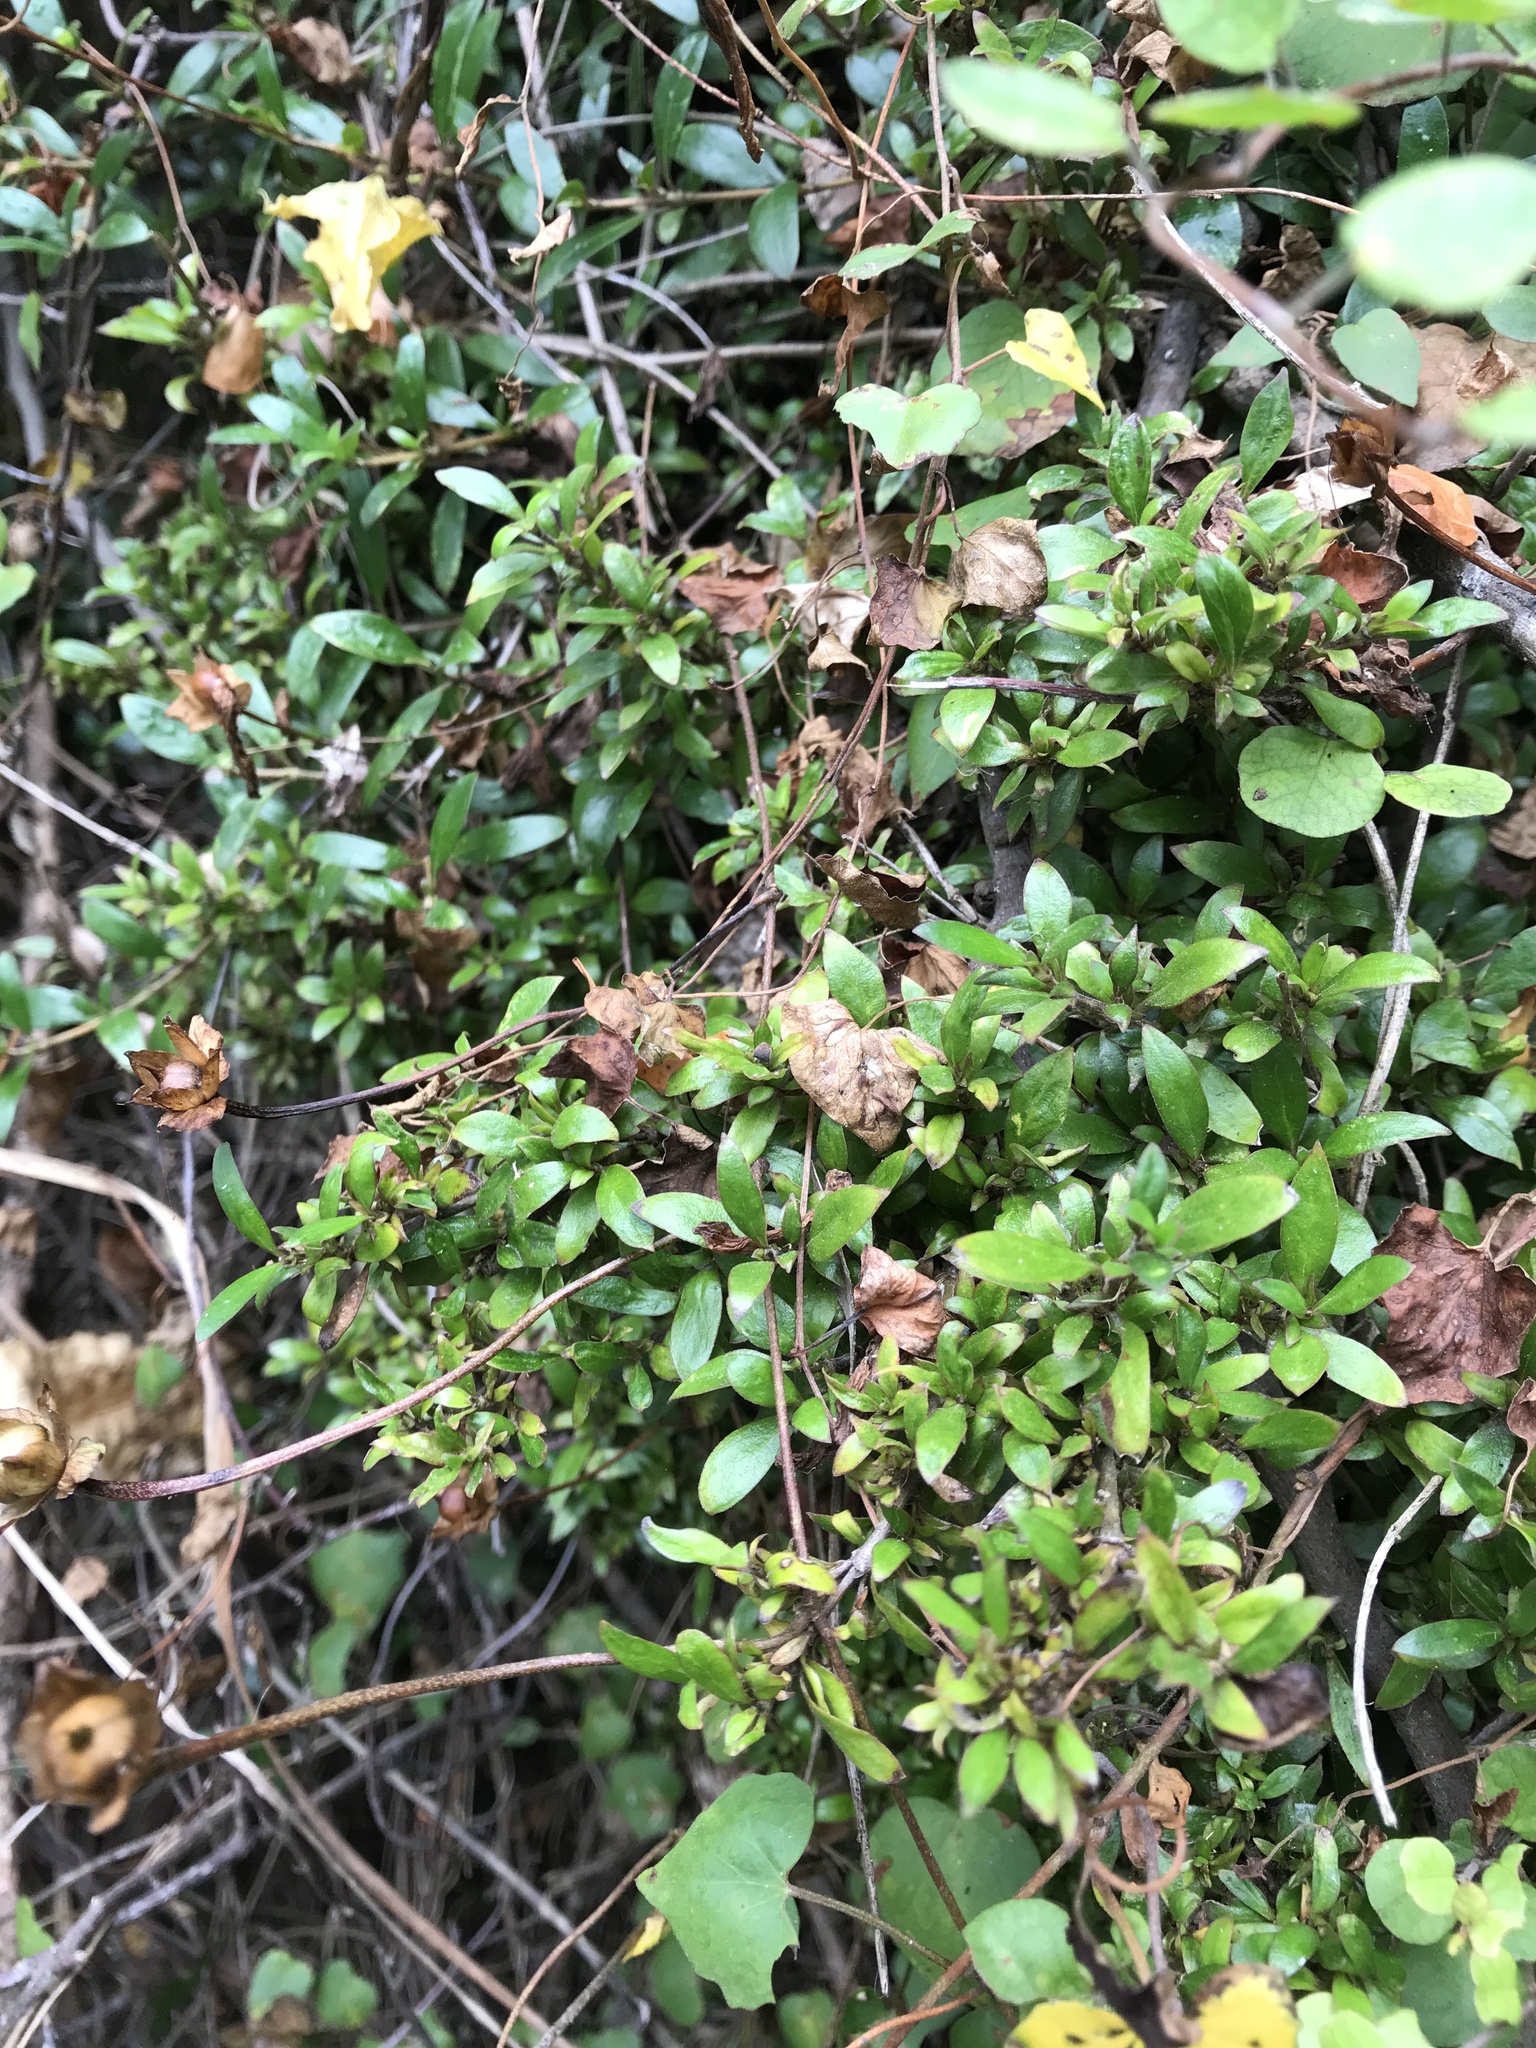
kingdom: Plantae
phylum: Tracheophyta
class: Magnoliopsida
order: Gentianales
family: Rubiaceae
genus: Coprosma
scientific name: Coprosma cunninghamii
